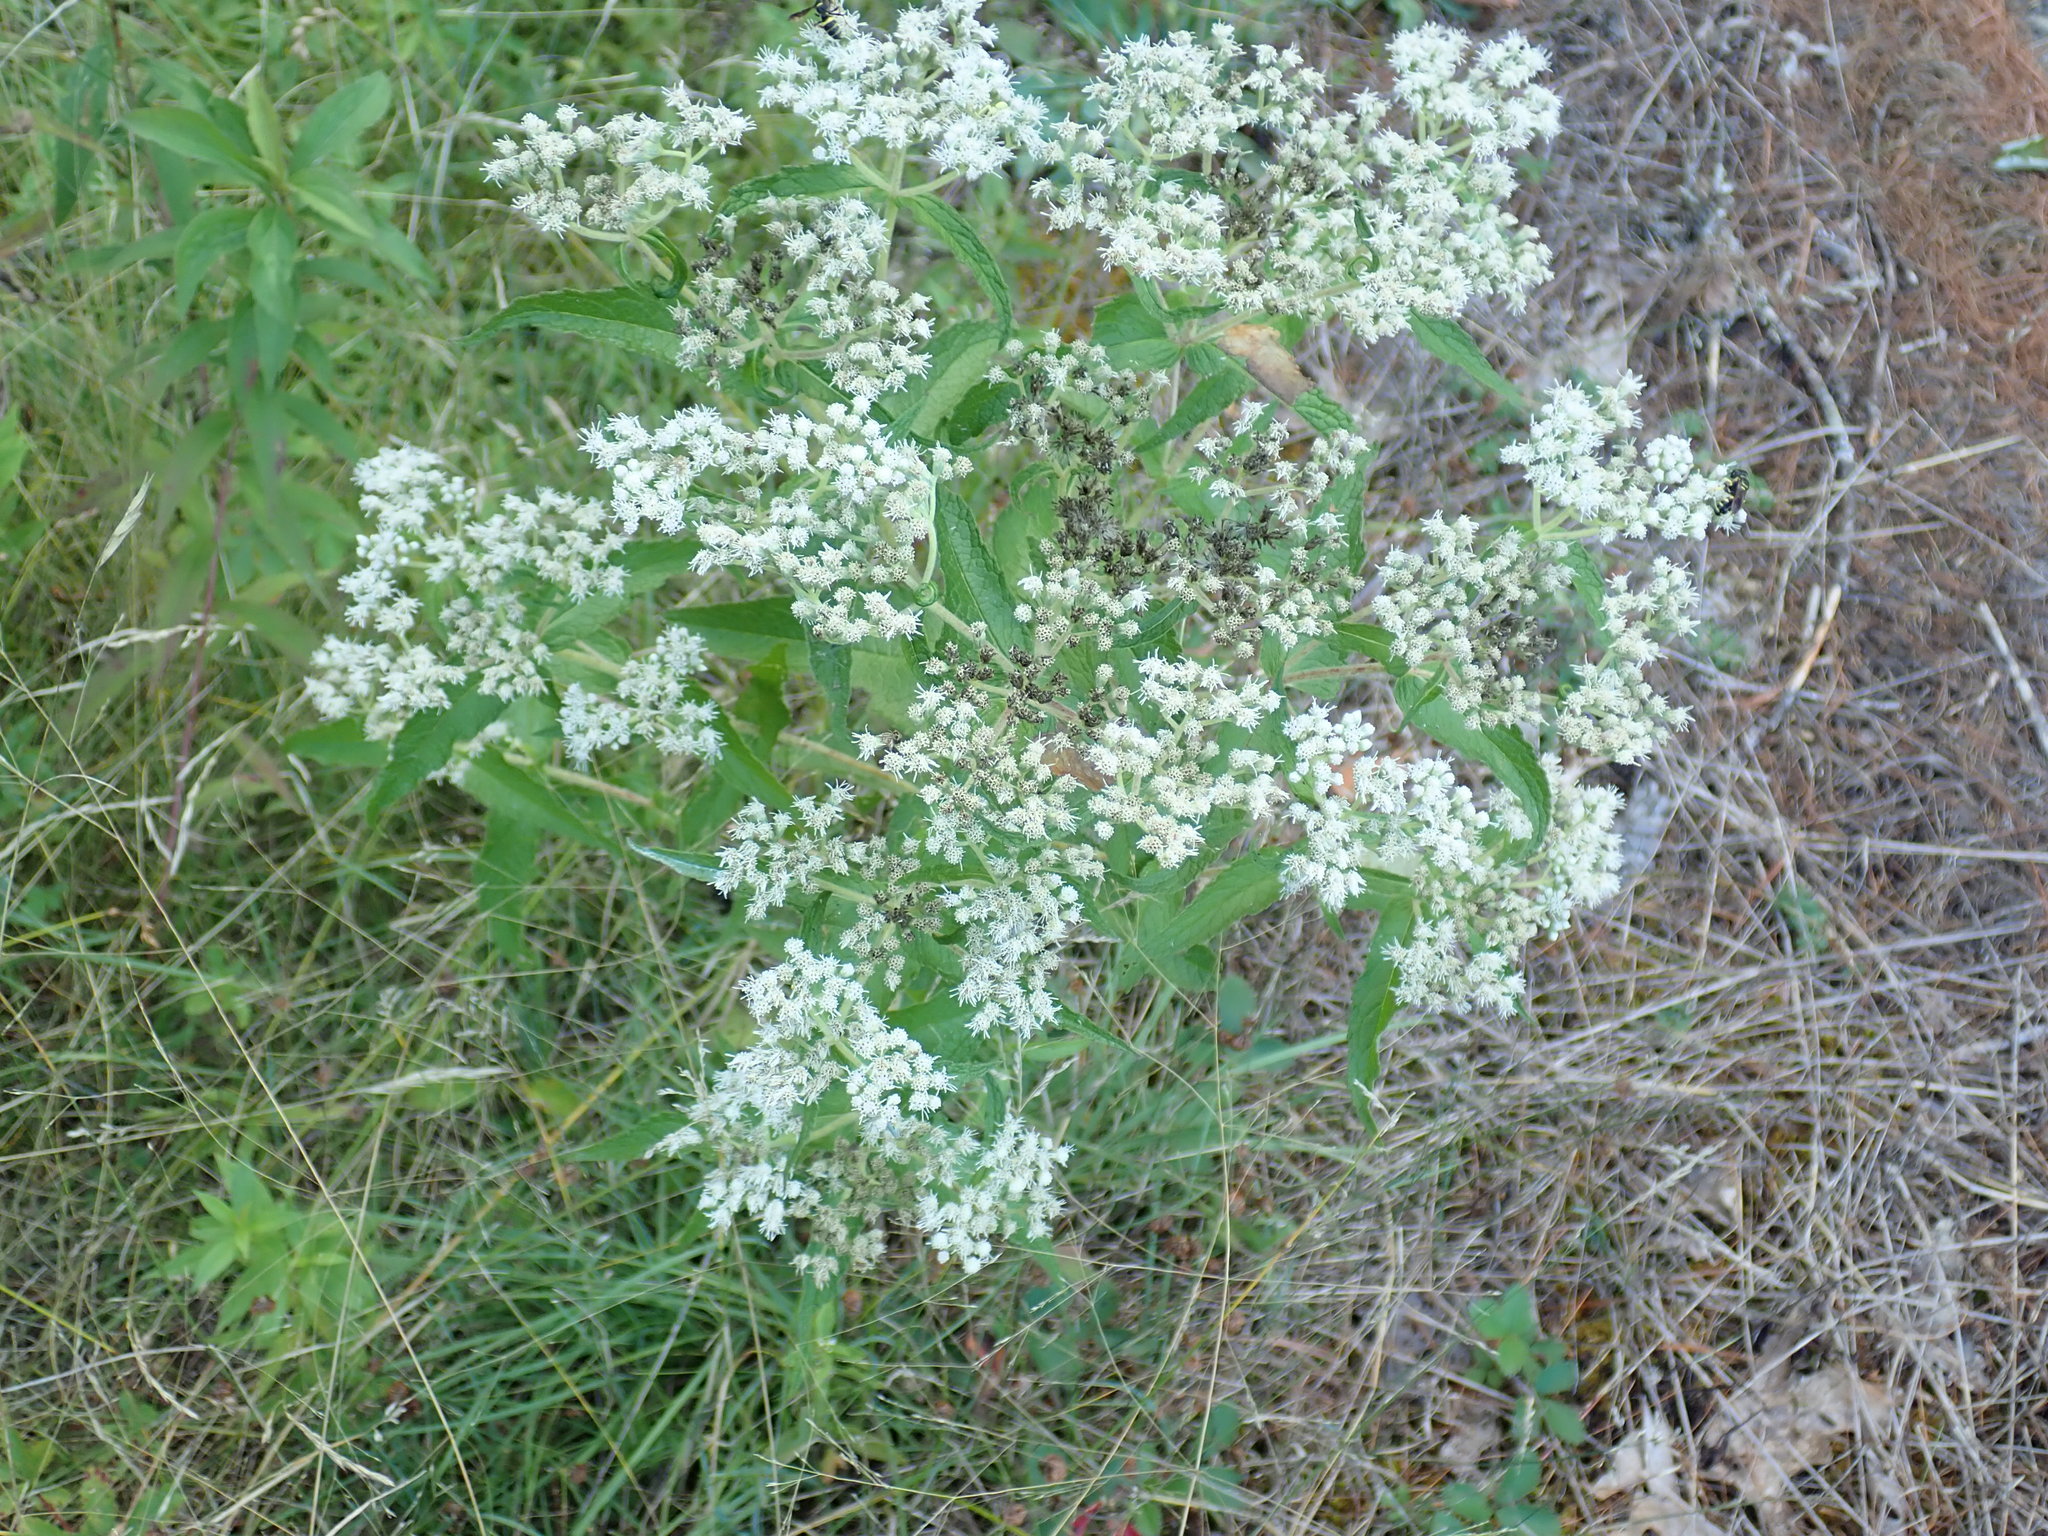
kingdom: Plantae
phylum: Tracheophyta
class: Magnoliopsida
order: Asterales
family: Asteraceae
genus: Eupatorium
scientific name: Eupatorium perfoliatum
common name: Boneset
